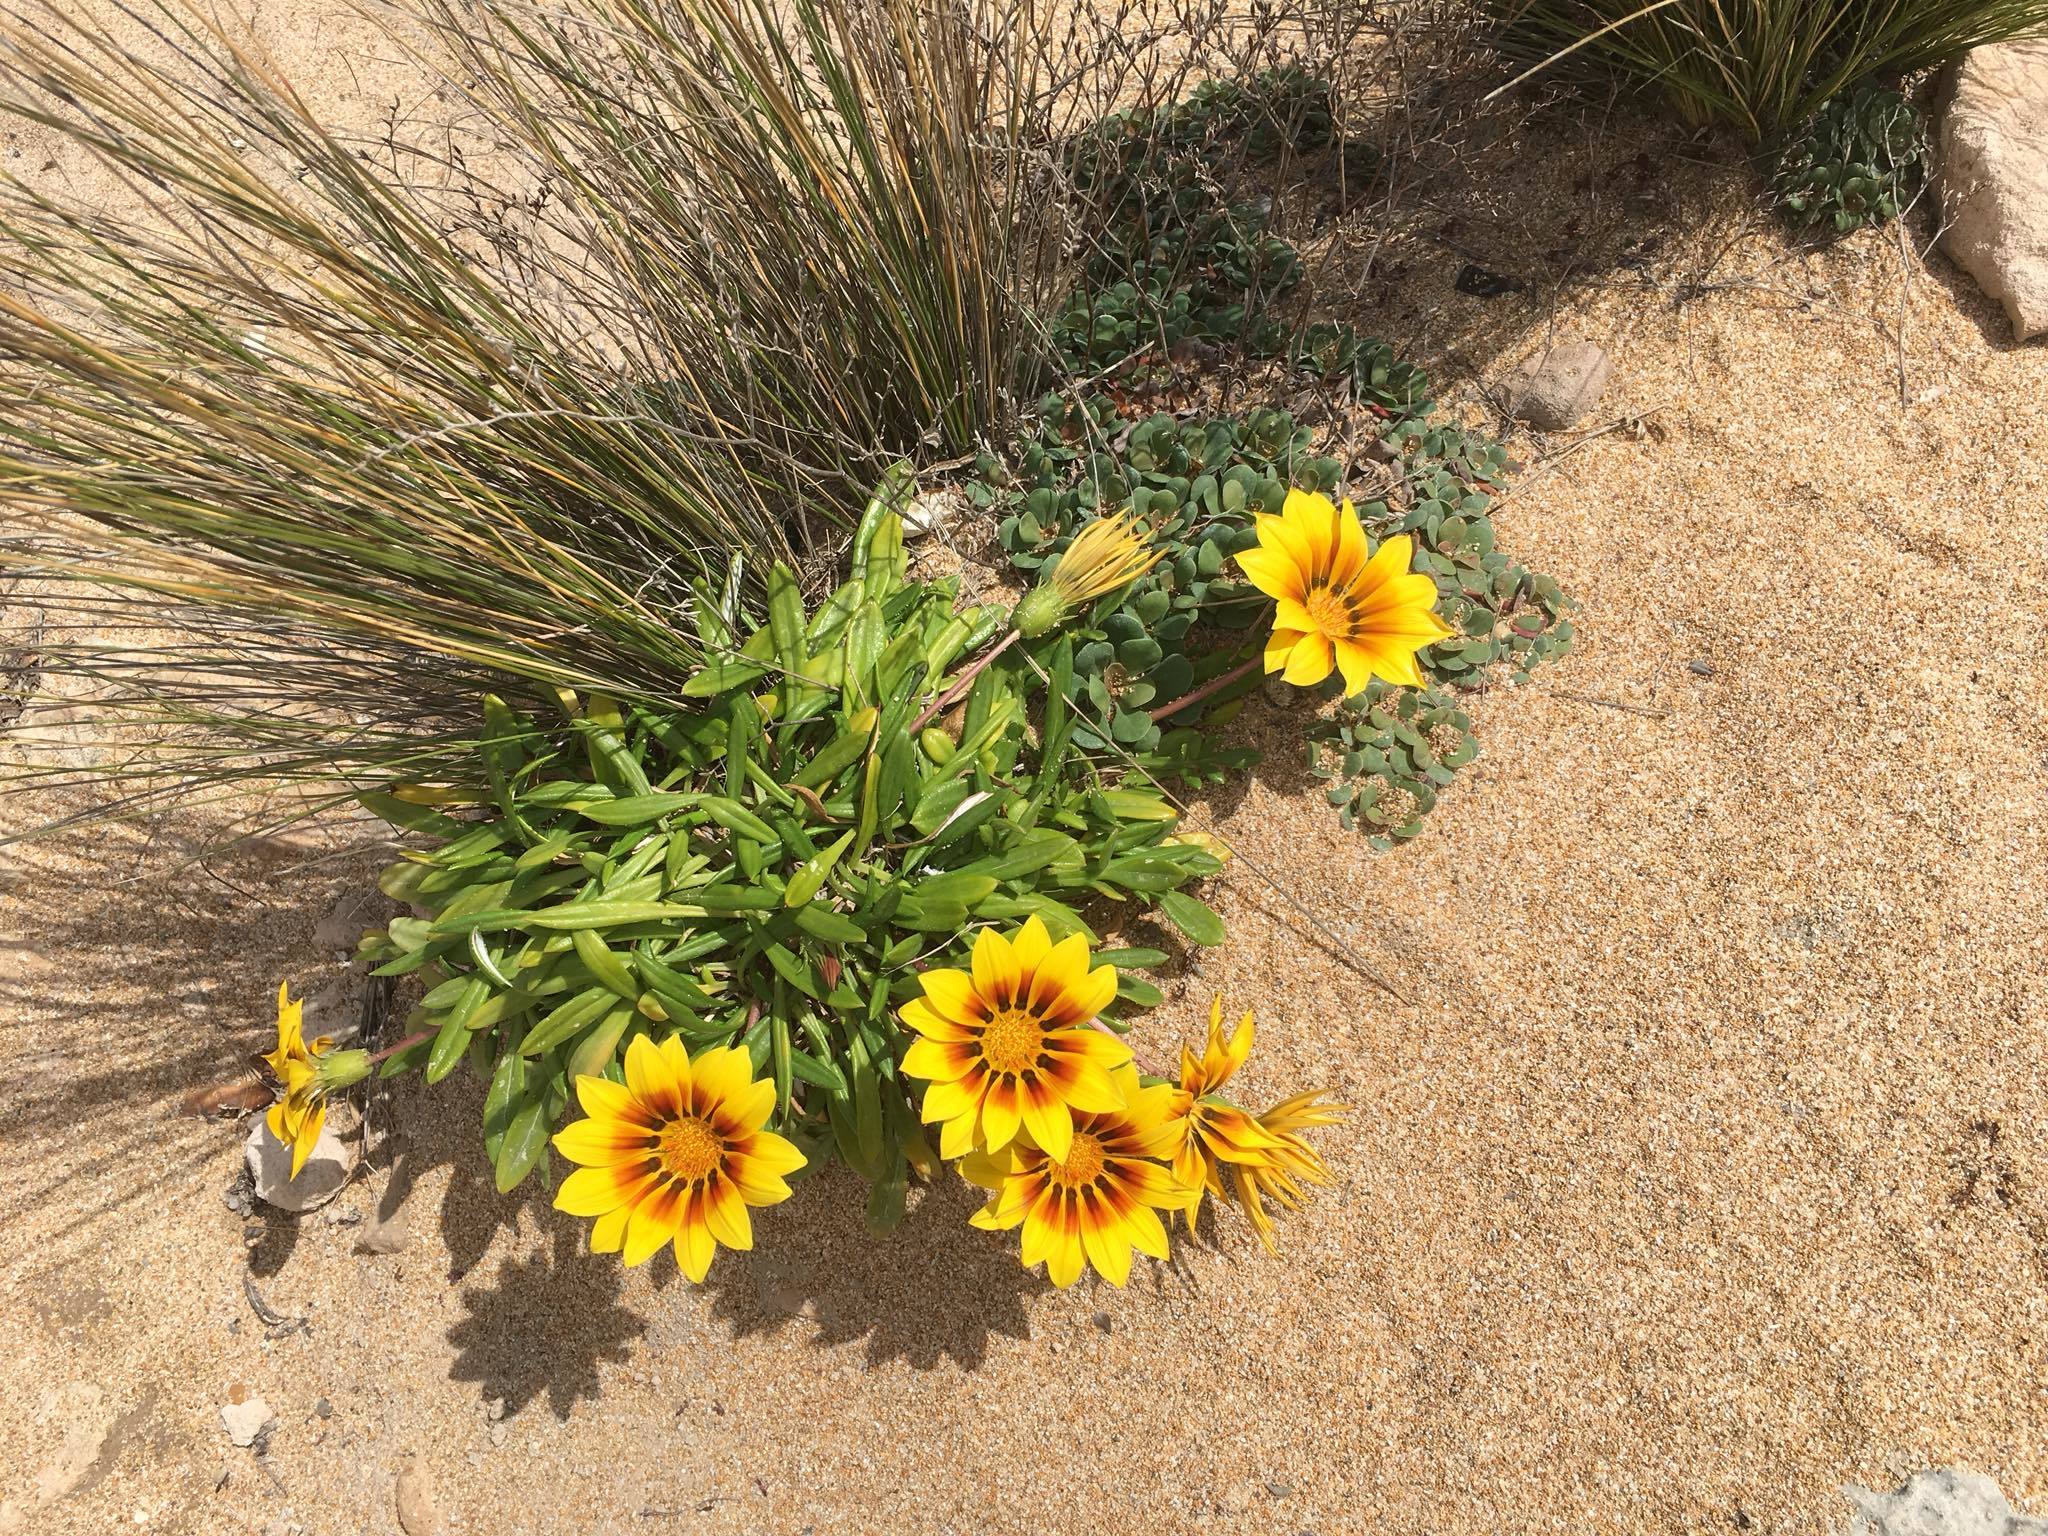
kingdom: Plantae
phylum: Tracheophyta
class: Magnoliopsida
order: Asterales
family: Asteraceae
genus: Gazania
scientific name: Gazania splendens
